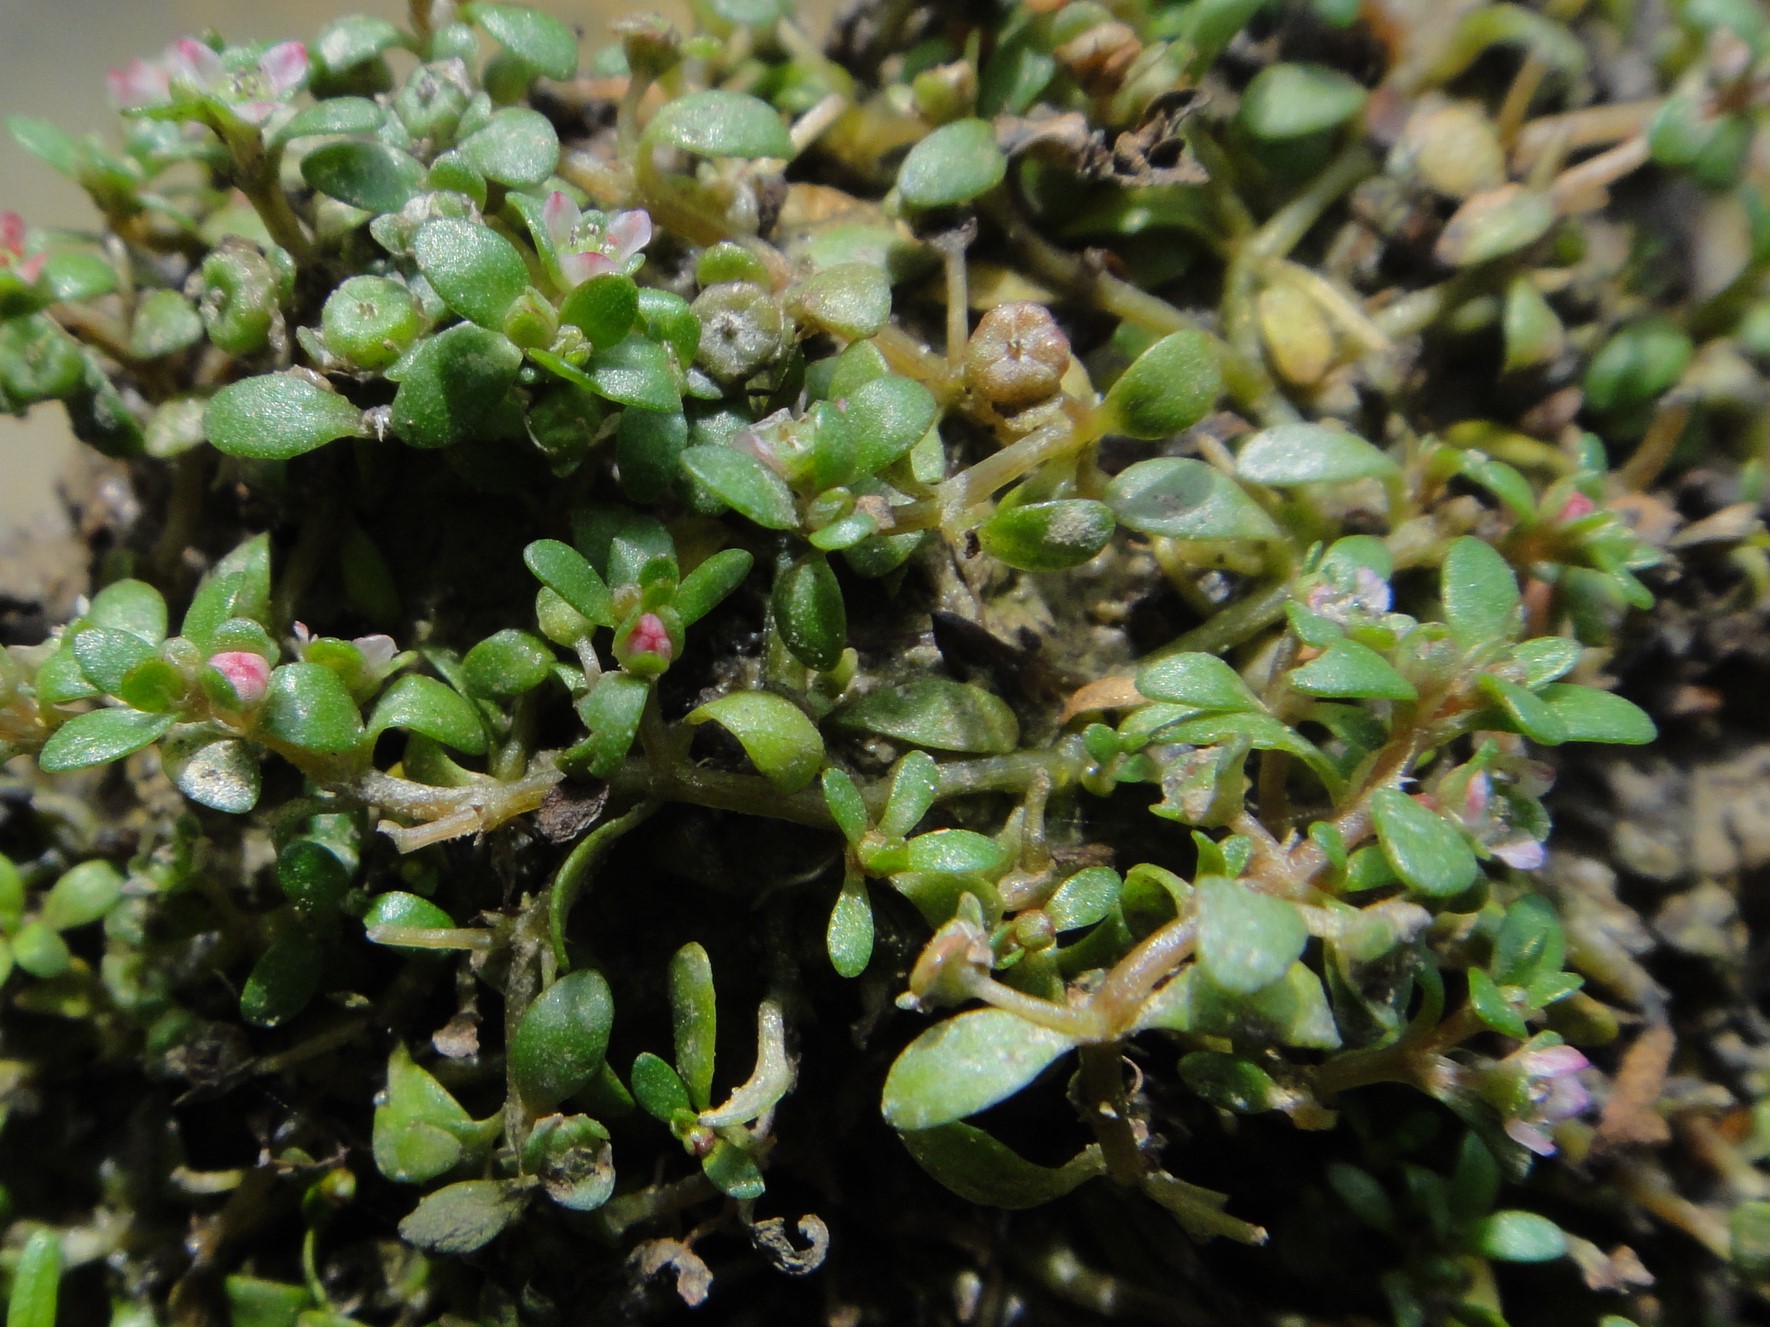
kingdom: Plantae
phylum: Tracheophyta
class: Magnoliopsida
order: Malpighiales
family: Elatinaceae
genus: Elatine
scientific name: Elatine hexandra
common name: Six-stamened waterwort
